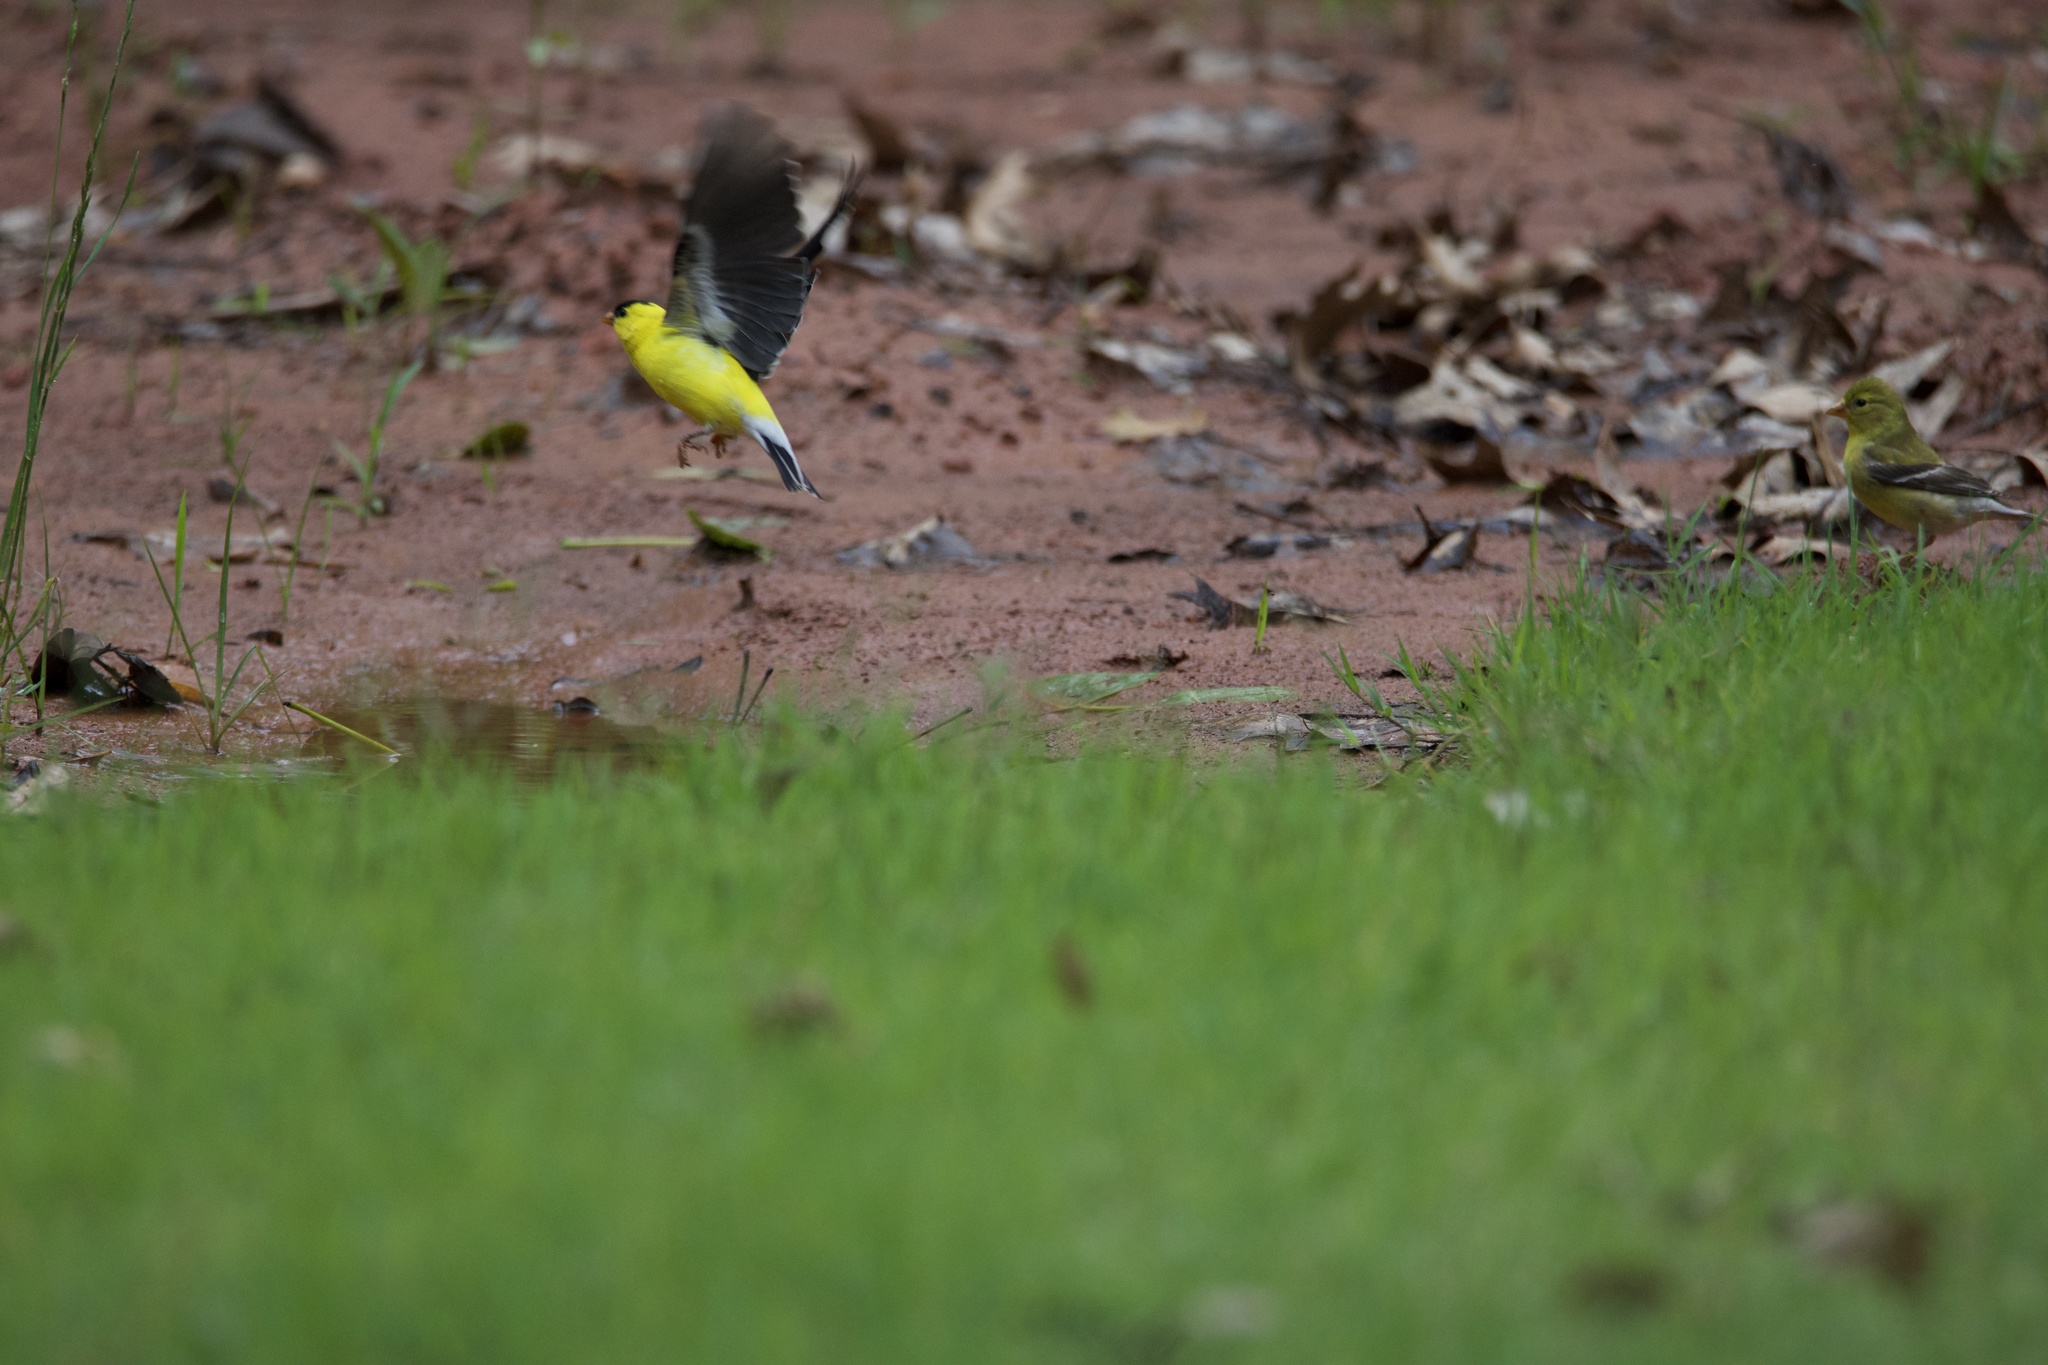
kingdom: Animalia
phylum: Chordata
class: Aves
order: Passeriformes
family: Fringillidae
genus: Spinus
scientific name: Spinus tristis
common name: American goldfinch
